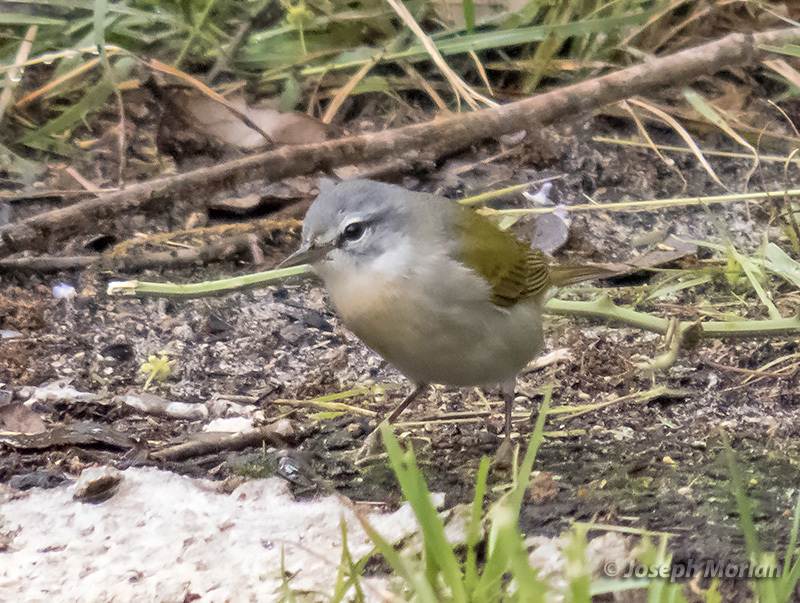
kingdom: Animalia
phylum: Chordata
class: Aves
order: Passeriformes
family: Parulidae
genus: Leiothlypis
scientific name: Leiothlypis peregrina
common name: Tennessee warbler
